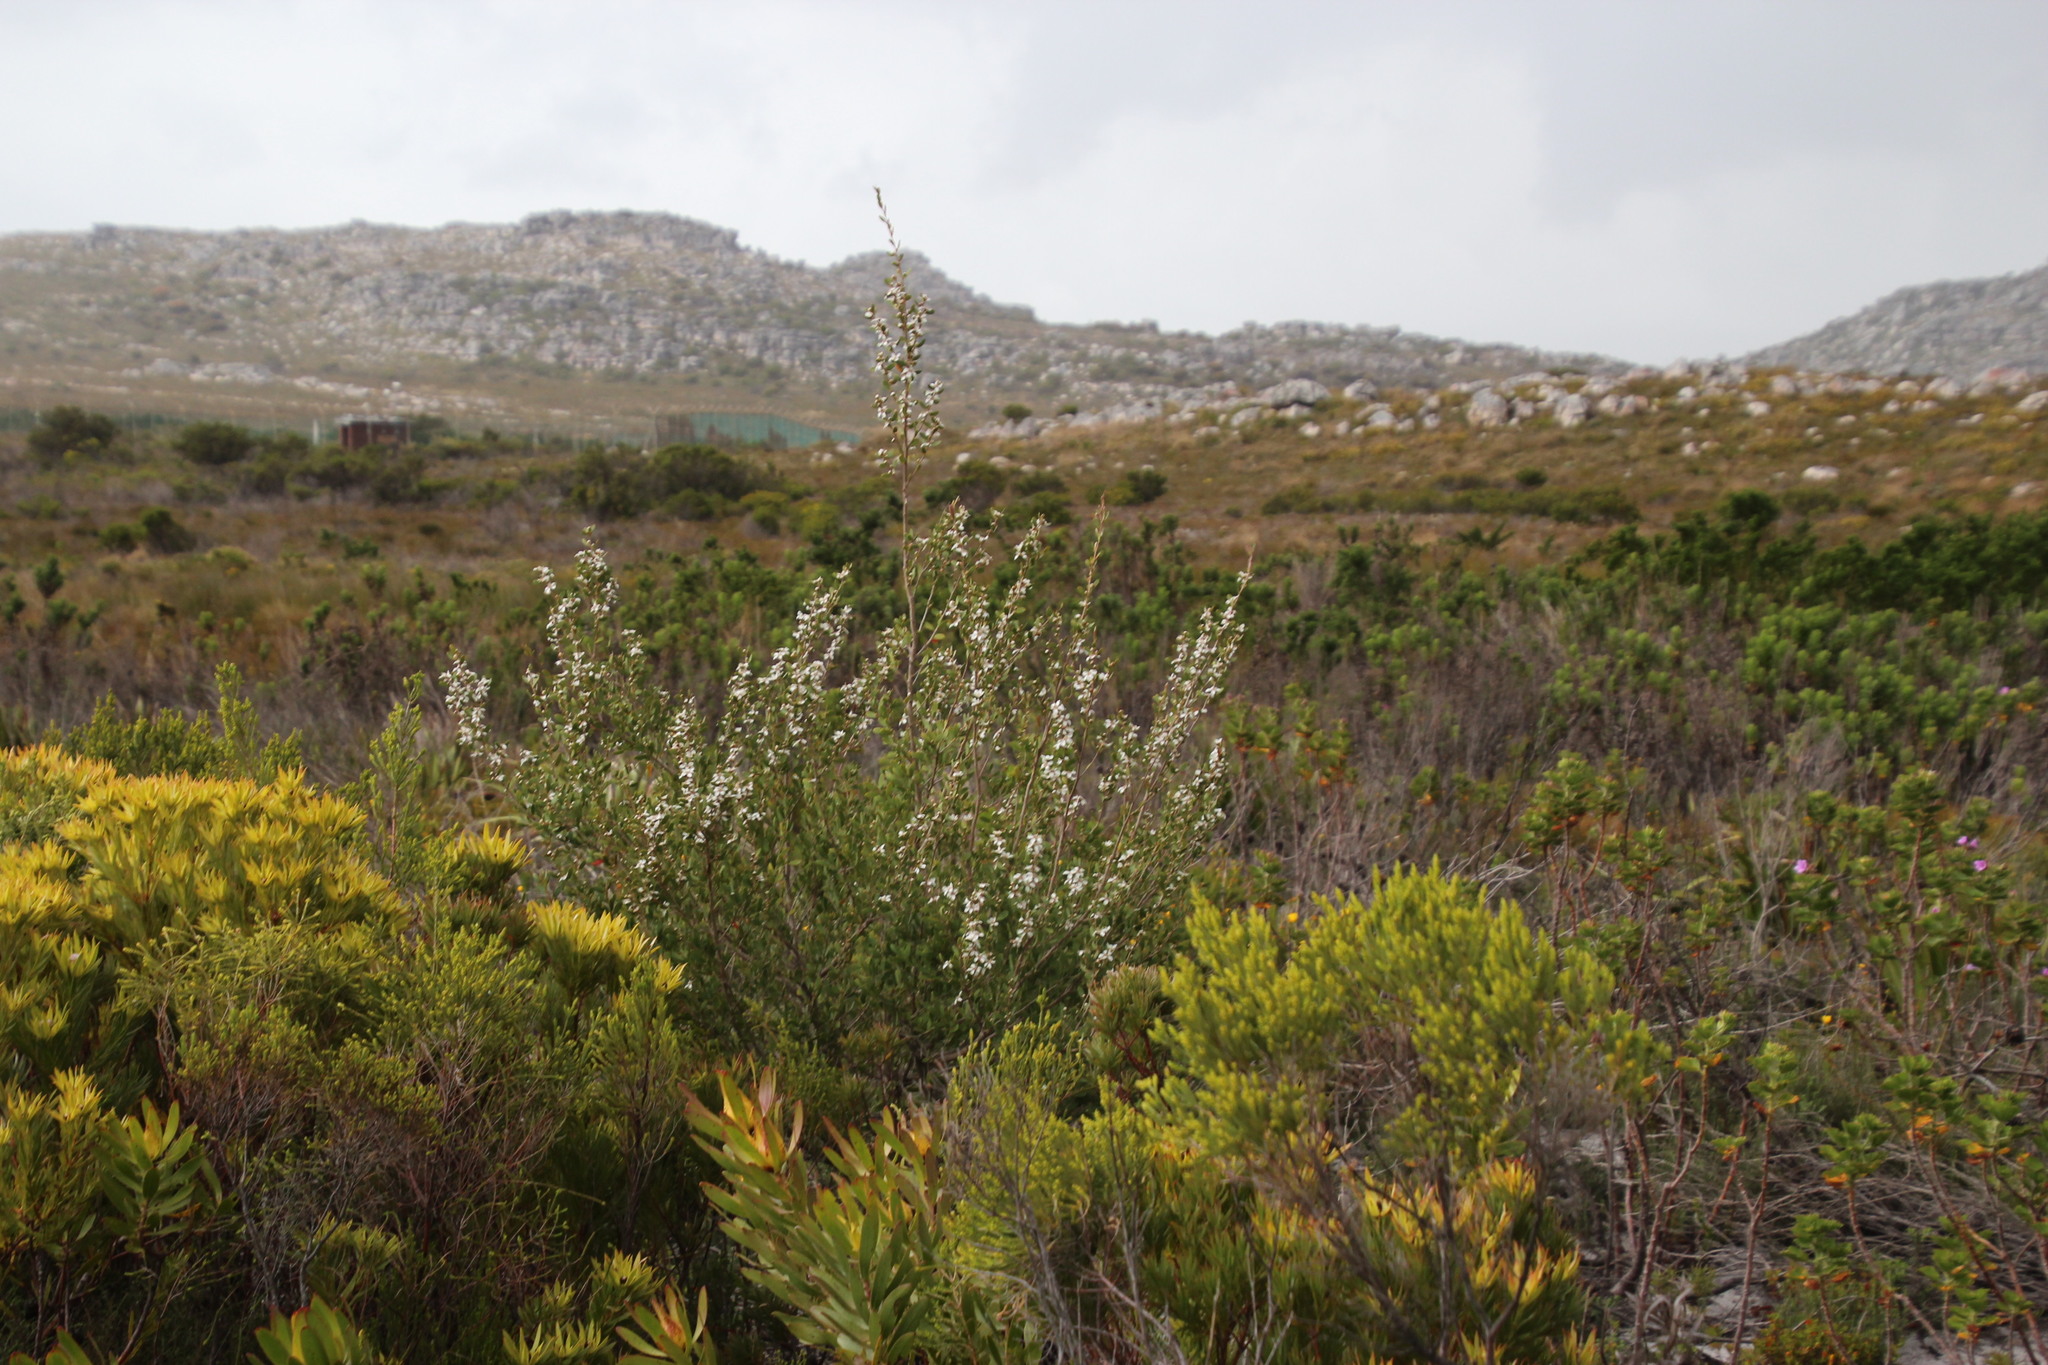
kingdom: Plantae
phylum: Tracheophyta
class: Magnoliopsida
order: Myrtales
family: Myrtaceae
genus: Leptospermum
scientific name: Leptospermum laevigatum
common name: Australian teatree
